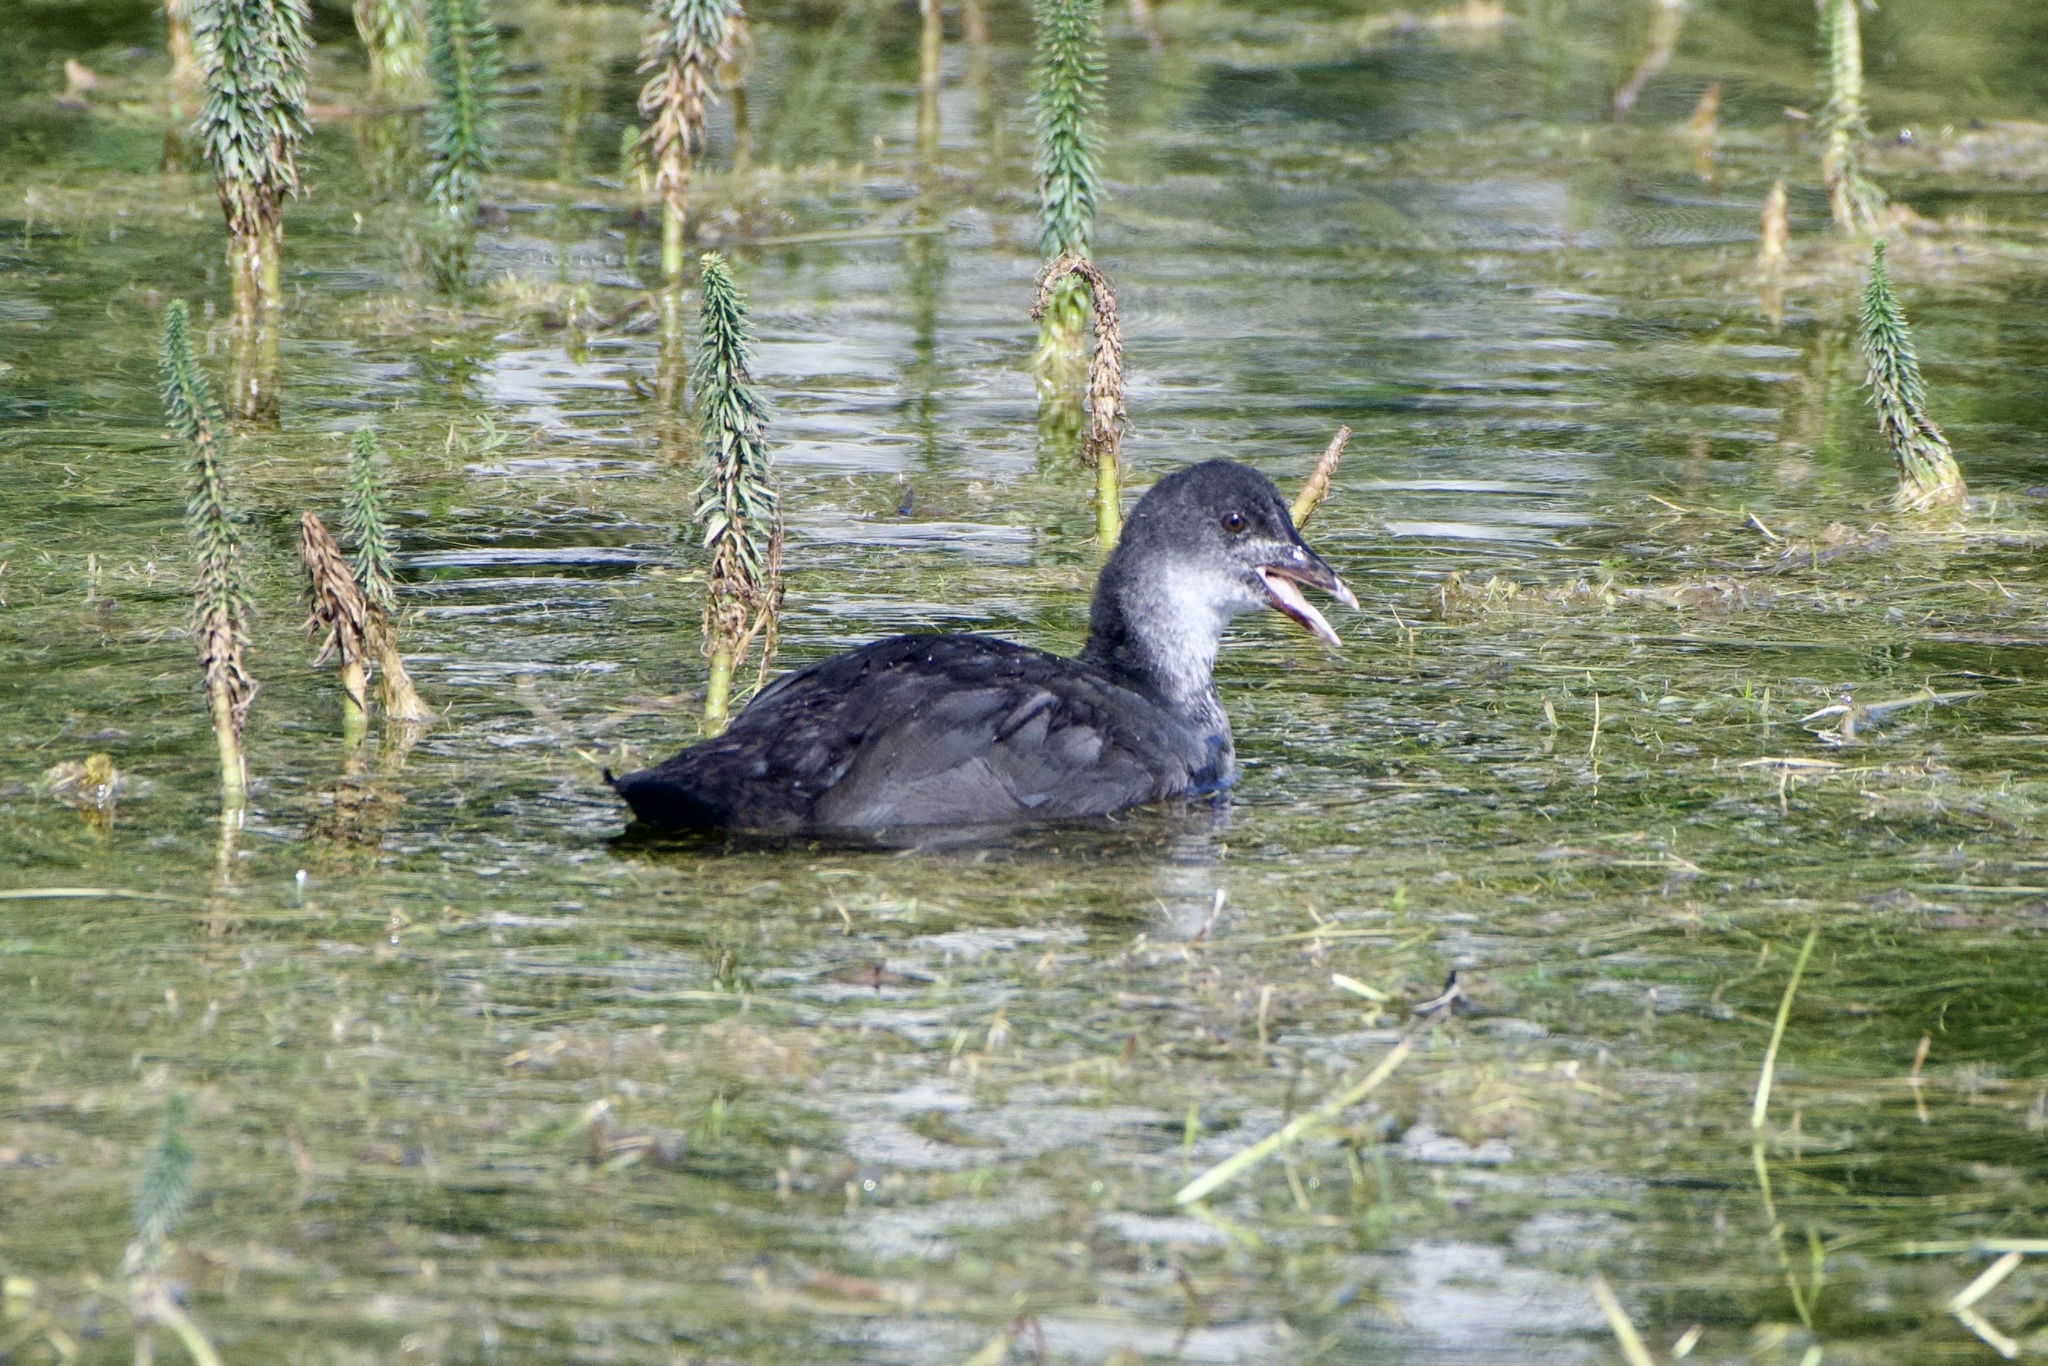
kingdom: Animalia
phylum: Chordata
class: Aves
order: Gruiformes
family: Rallidae
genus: Fulica
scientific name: Fulica atra
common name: Eurasian coot
